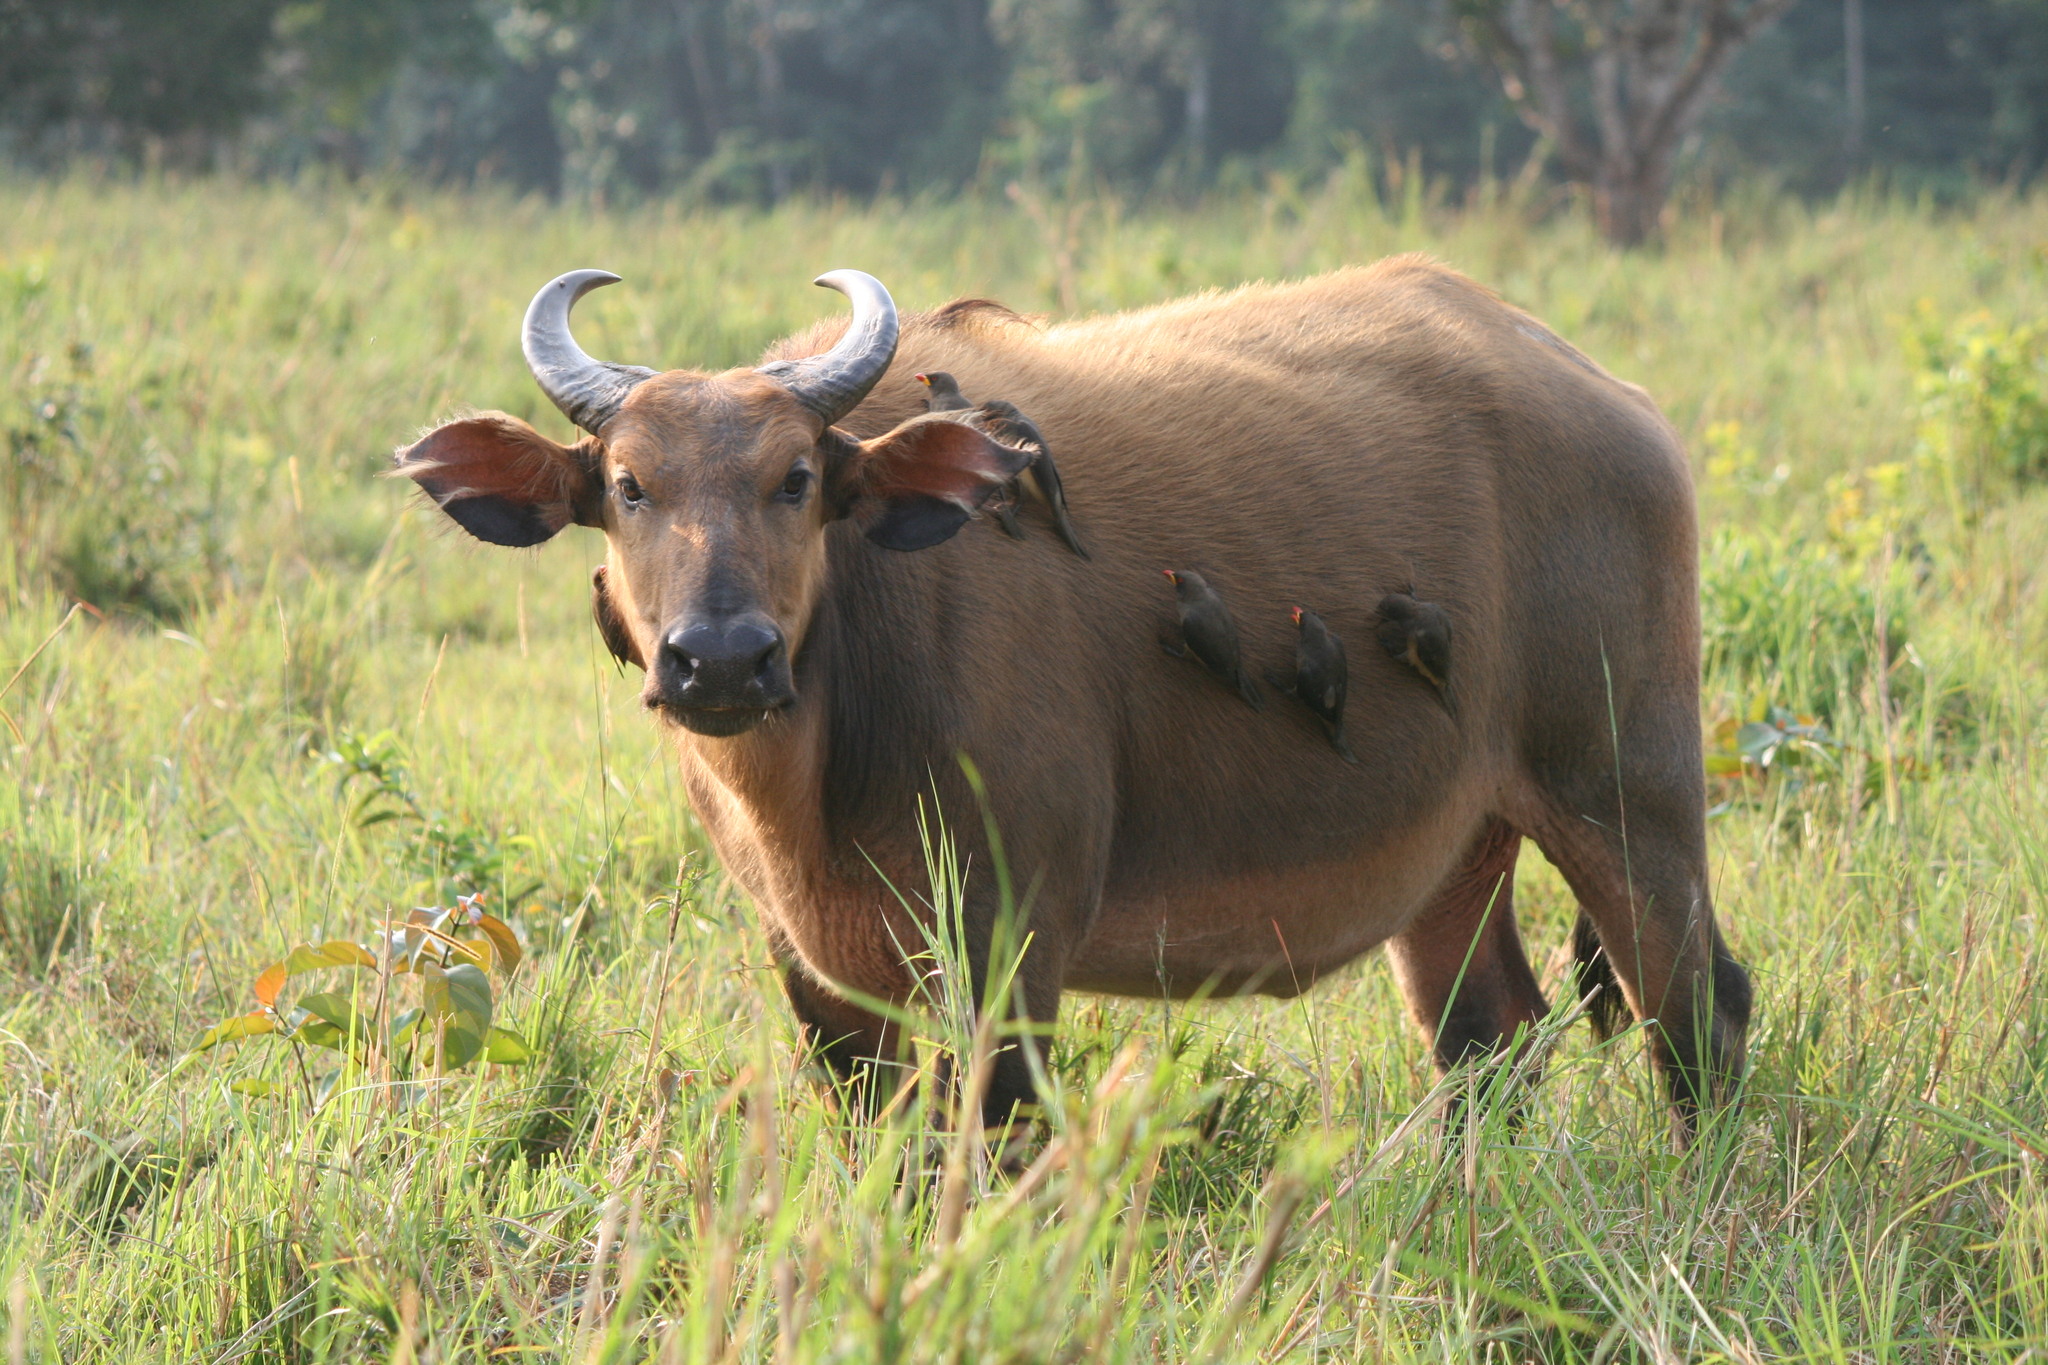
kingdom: Animalia
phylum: Chordata
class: Mammalia
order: Artiodactyla
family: Bovidae
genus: Syncerus
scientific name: Syncerus caffer
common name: African buffalo
